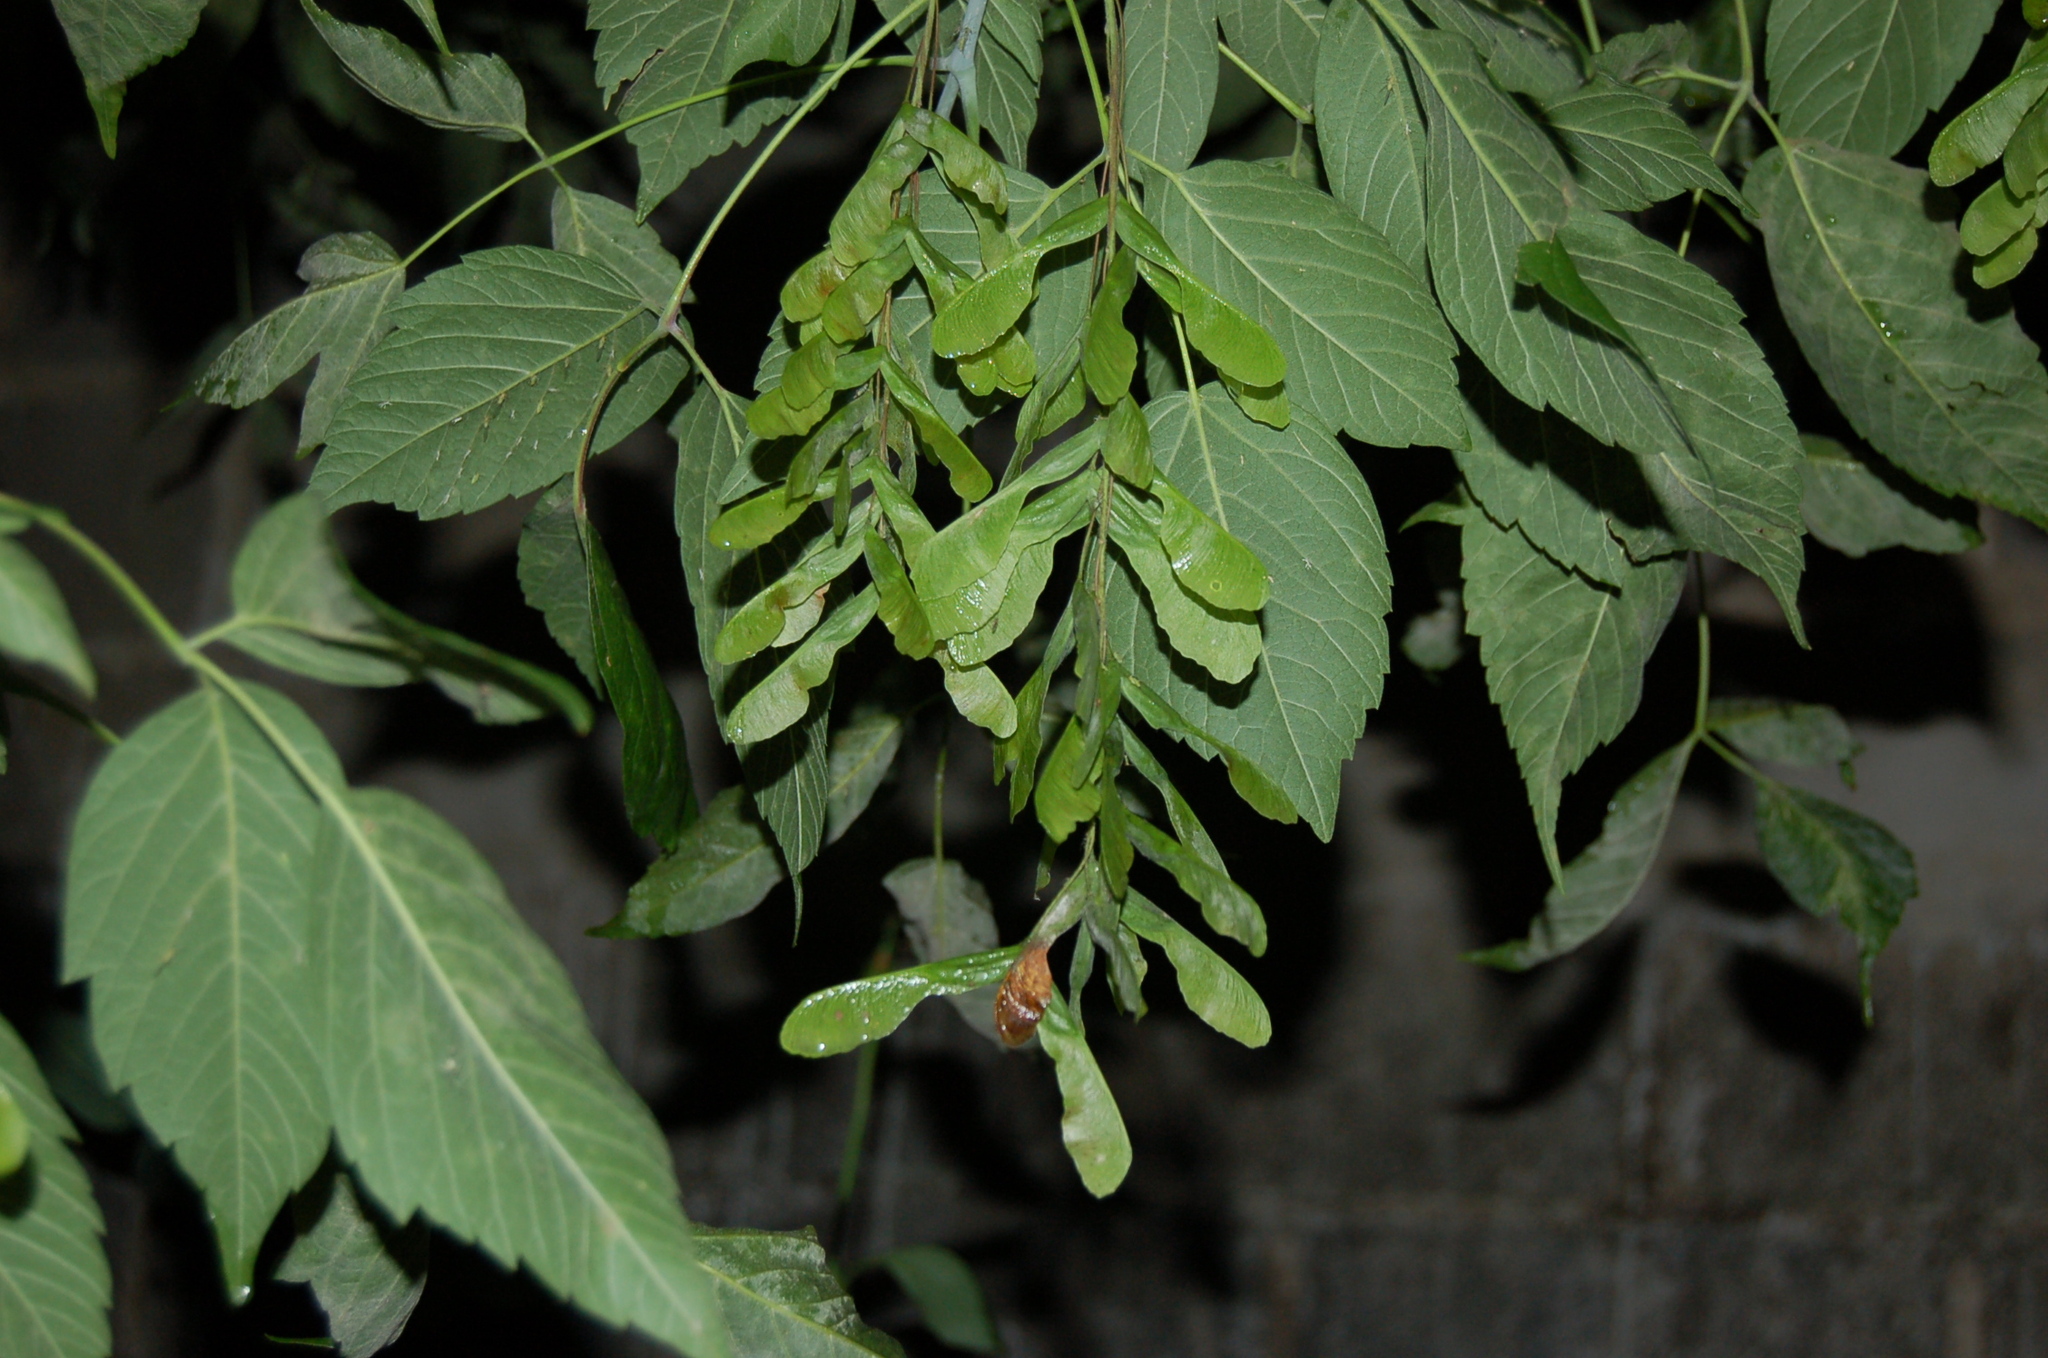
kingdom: Plantae
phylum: Tracheophyta
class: Magnoliopsida
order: Sapindales
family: Sapindaceae
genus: Acer
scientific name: Acer negundo
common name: Ashleaf maple
